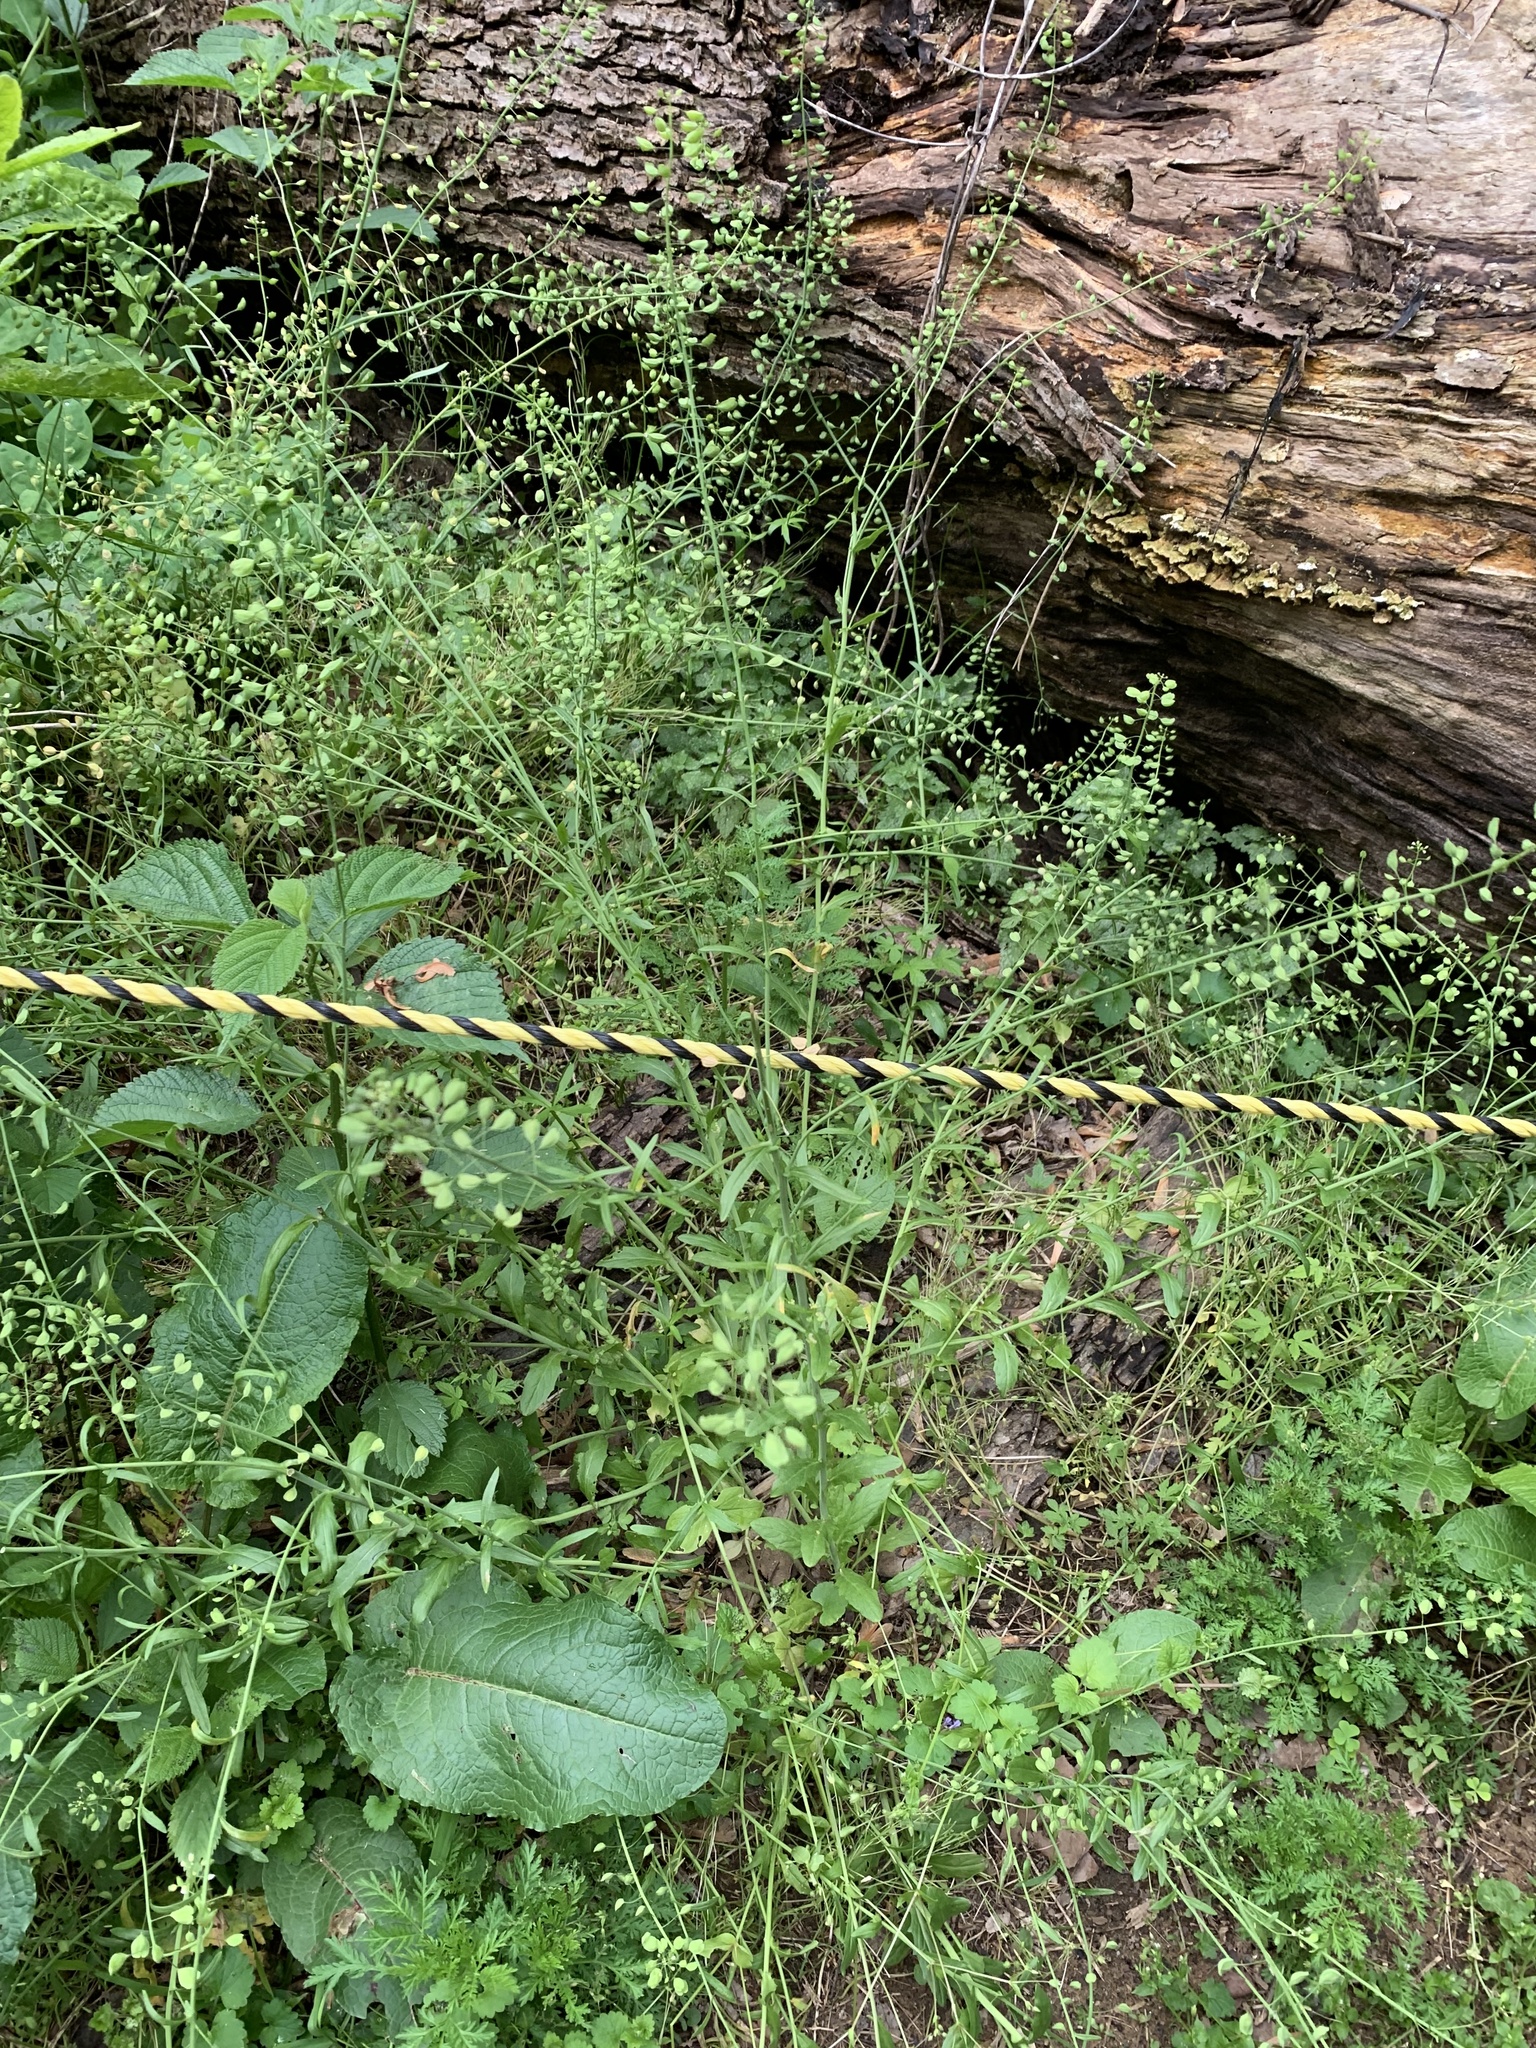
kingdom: Plantae
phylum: Tracheophyta
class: Magnoliopsida
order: Brassicales
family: Brassicaceae
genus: Mummenhoffia
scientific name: Mummenhoffia alliacea
